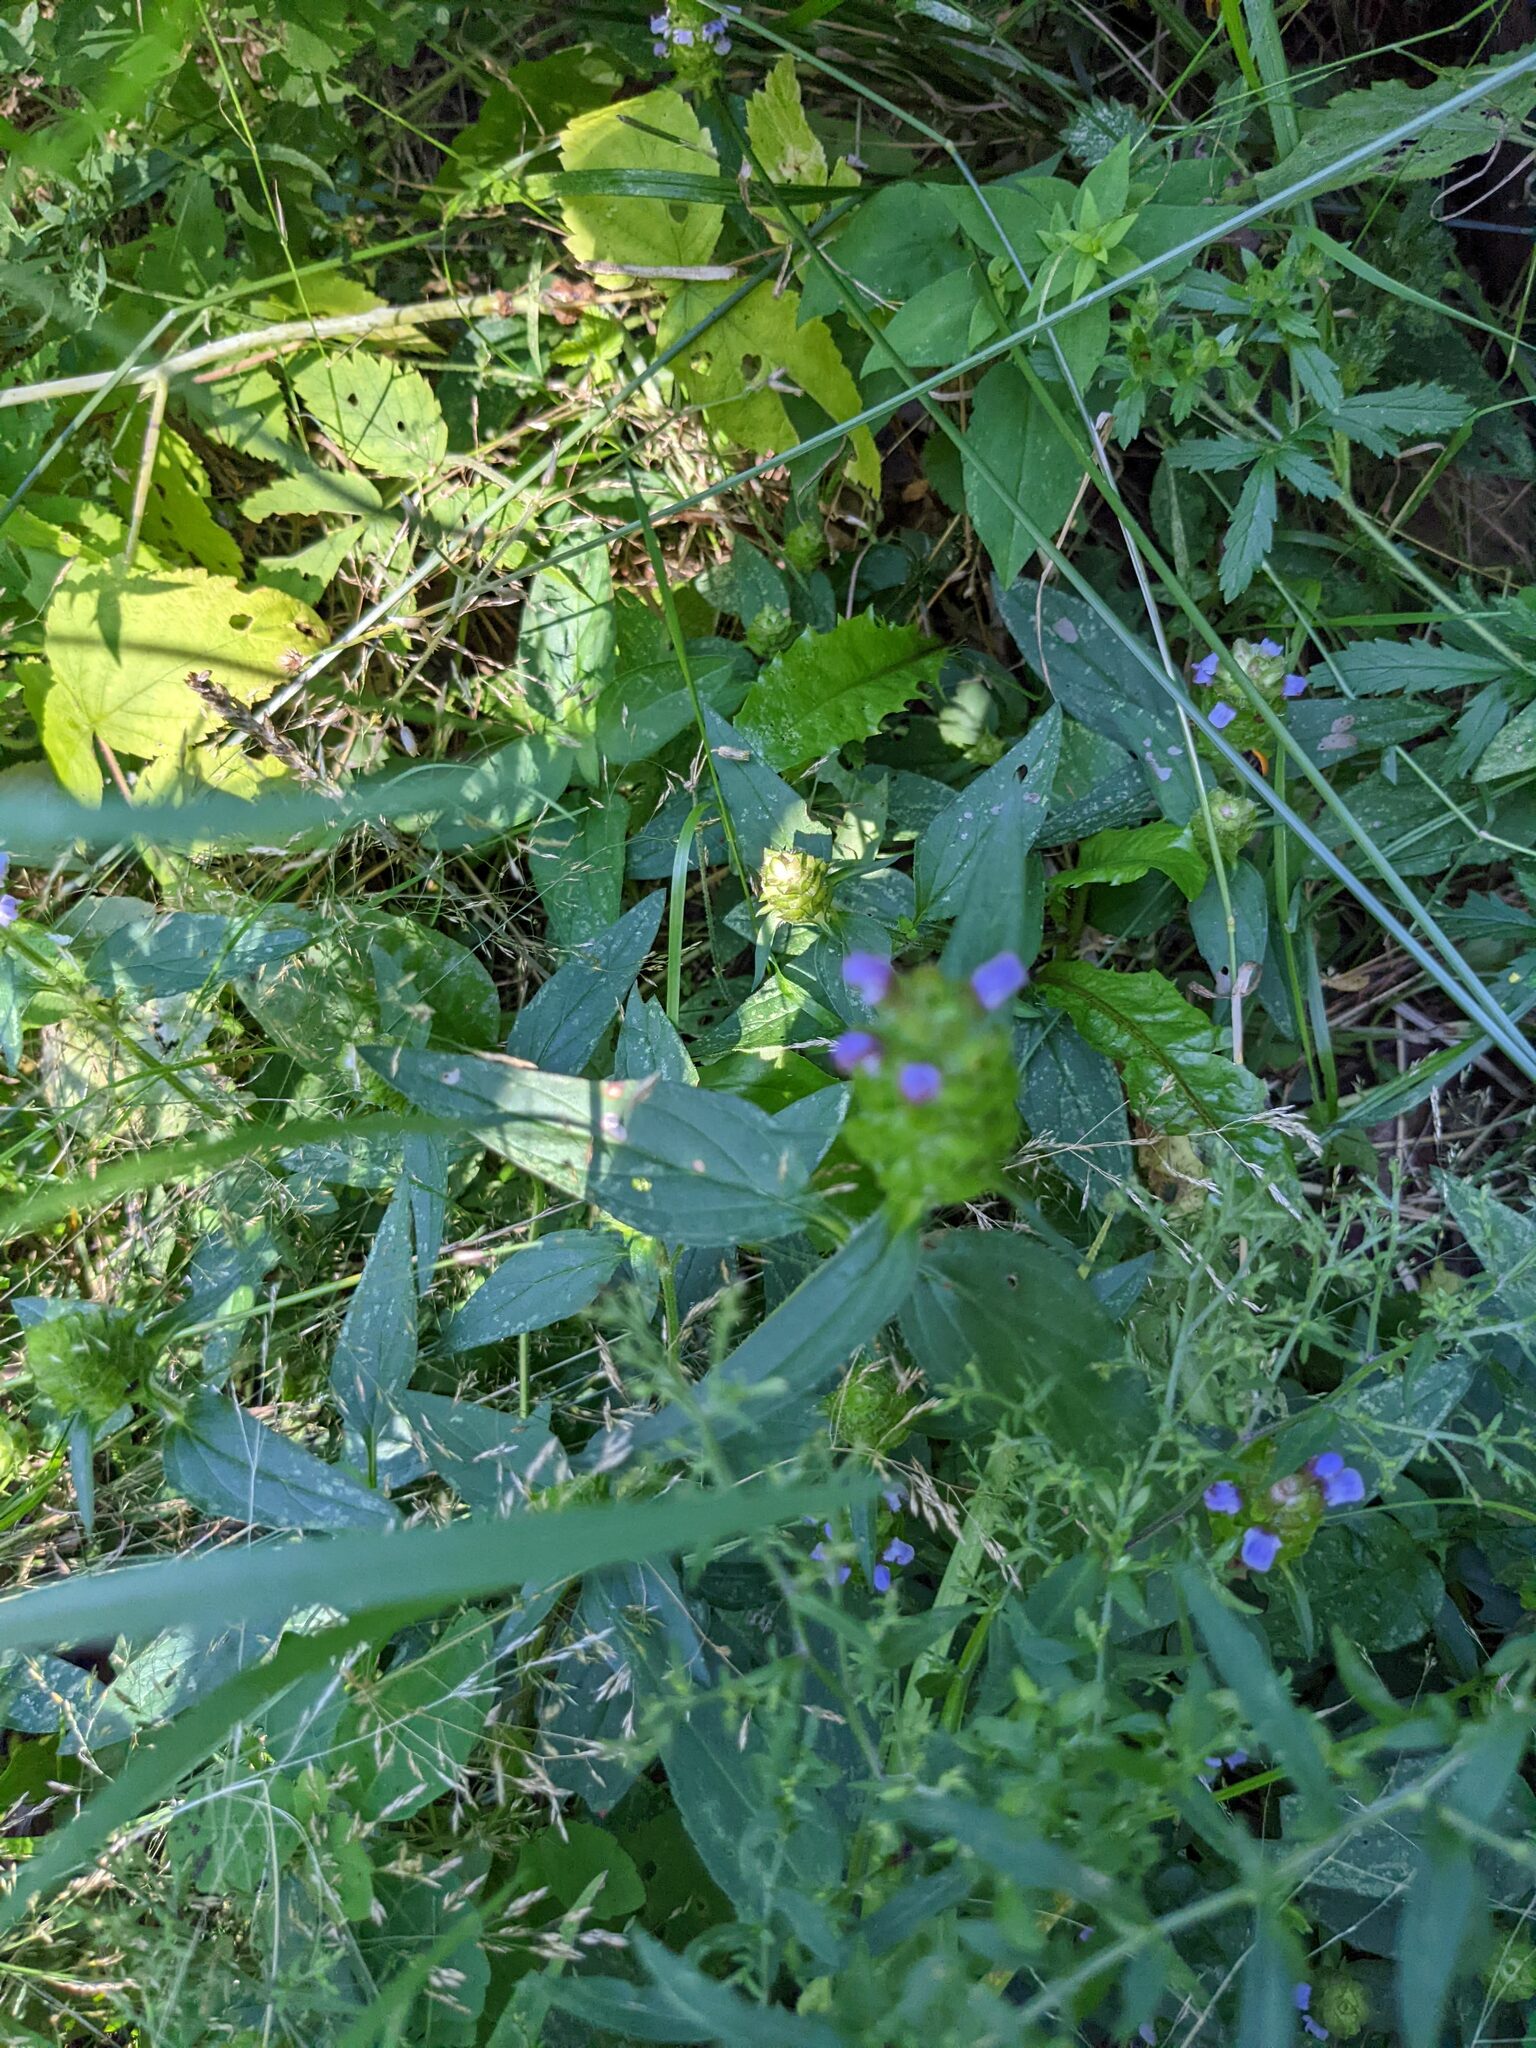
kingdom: Plantae
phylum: Tracheophyta
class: Magnoliopsida
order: Lamiales
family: Lamiaceae
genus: Prunella
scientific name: Prunella vulgaris
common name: Heal-all
